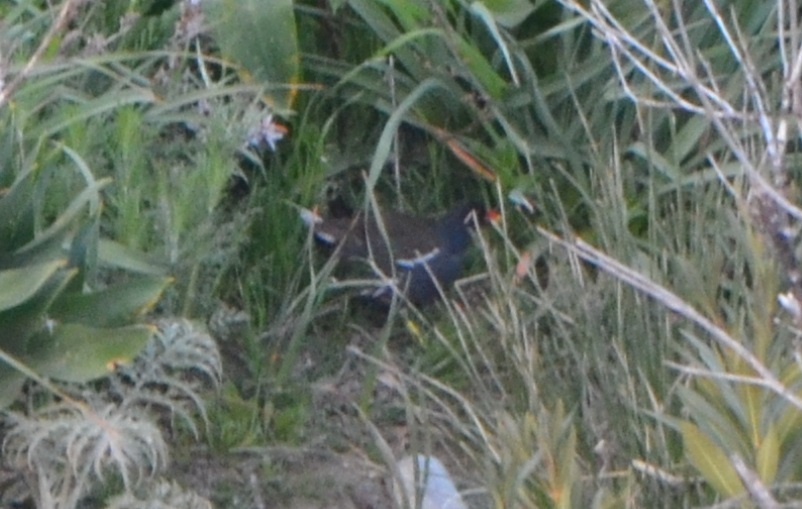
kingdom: Animalia
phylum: Chordata
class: Aves
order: Gruiformes
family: Rallidae
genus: Gallinula
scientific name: Gallinula chloropus
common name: Common moorhen
